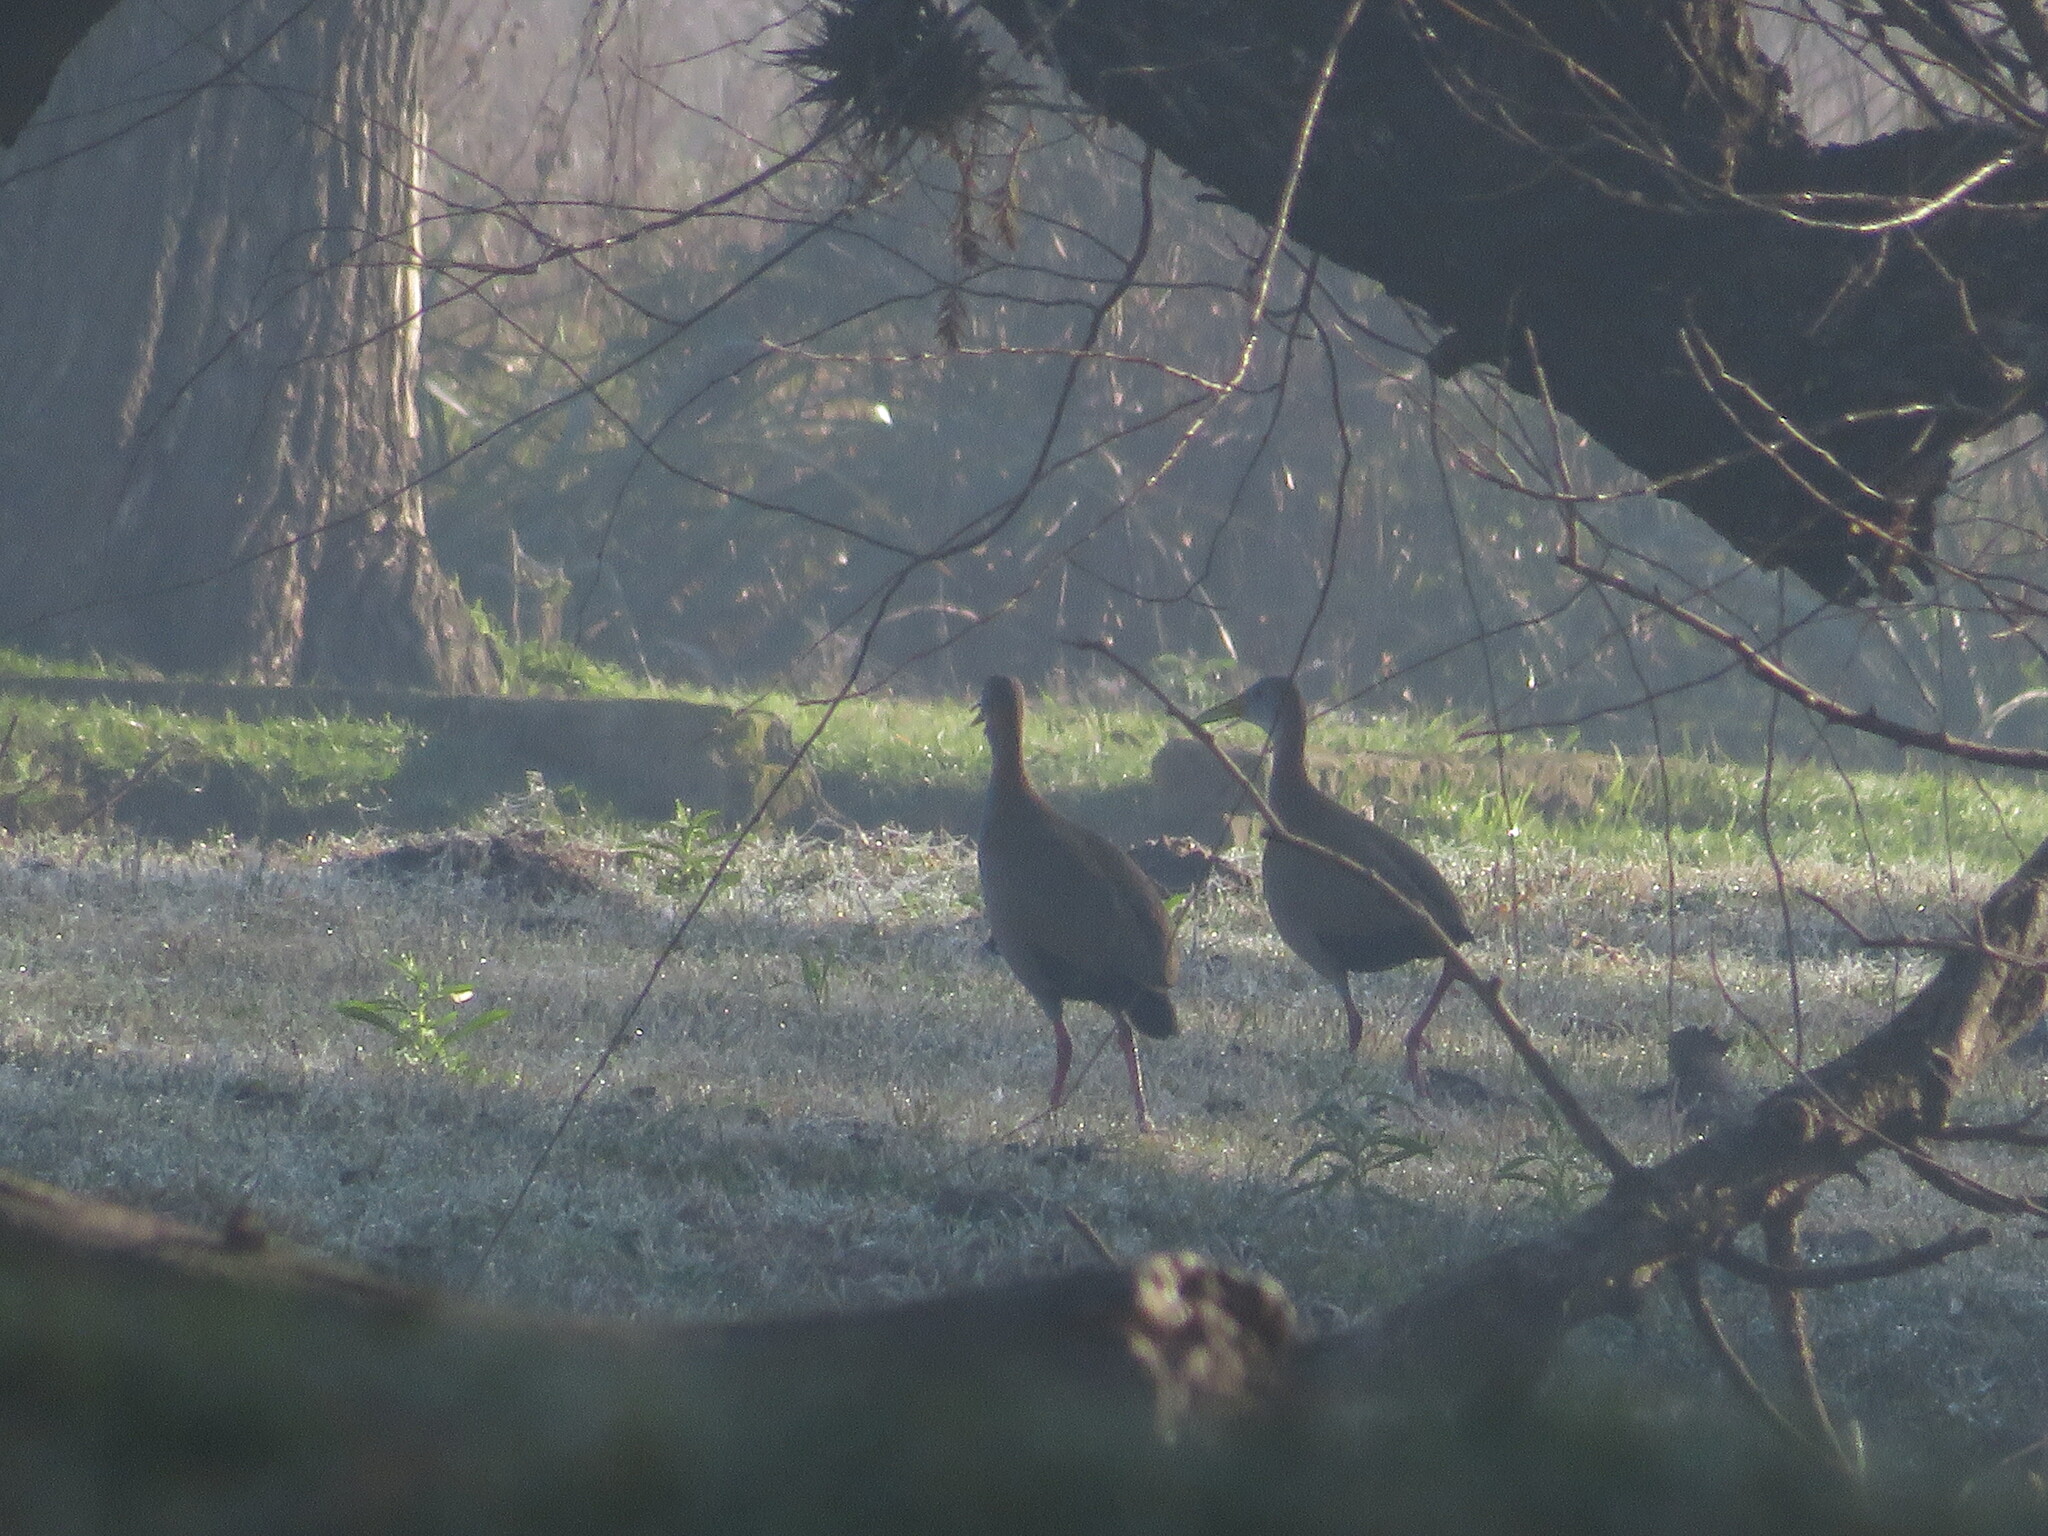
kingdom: Animalia
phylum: Chordata
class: Aves
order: Gruiformes
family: Rallidae
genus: Aramides
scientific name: Aramides ypecaha
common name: Giant wood rail
